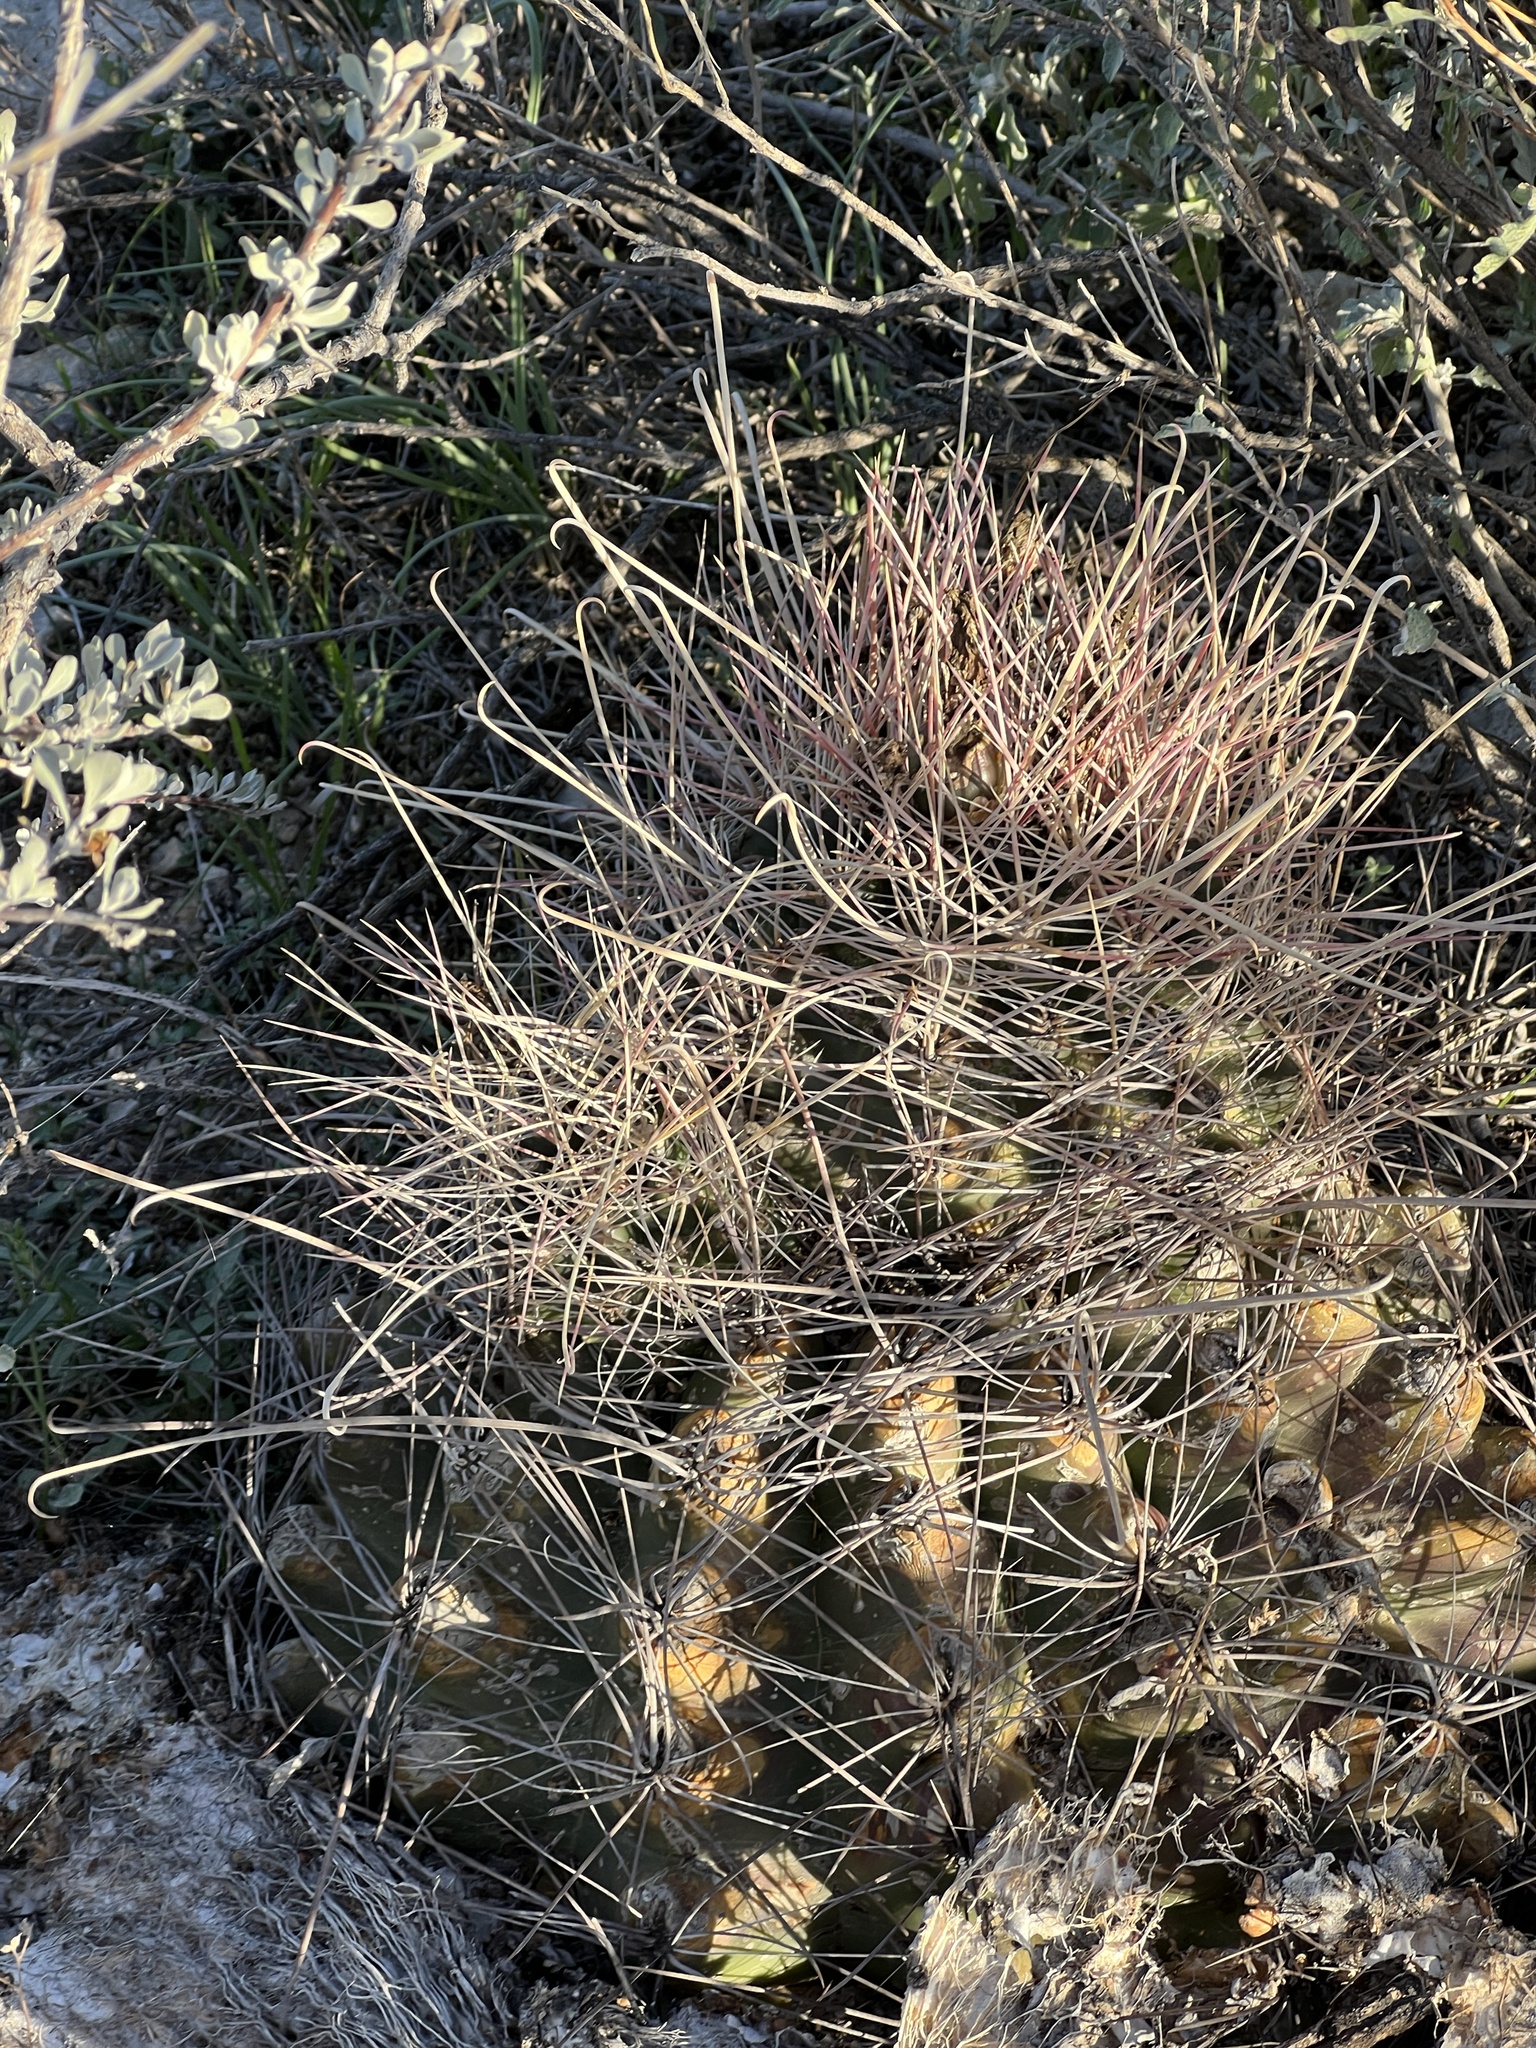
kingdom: Plantae
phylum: Tracheophyta
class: Magnoliopsida
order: Caryophyllales
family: Cactaceae
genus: Bisnaga
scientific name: Bisnaga hamatacantha
